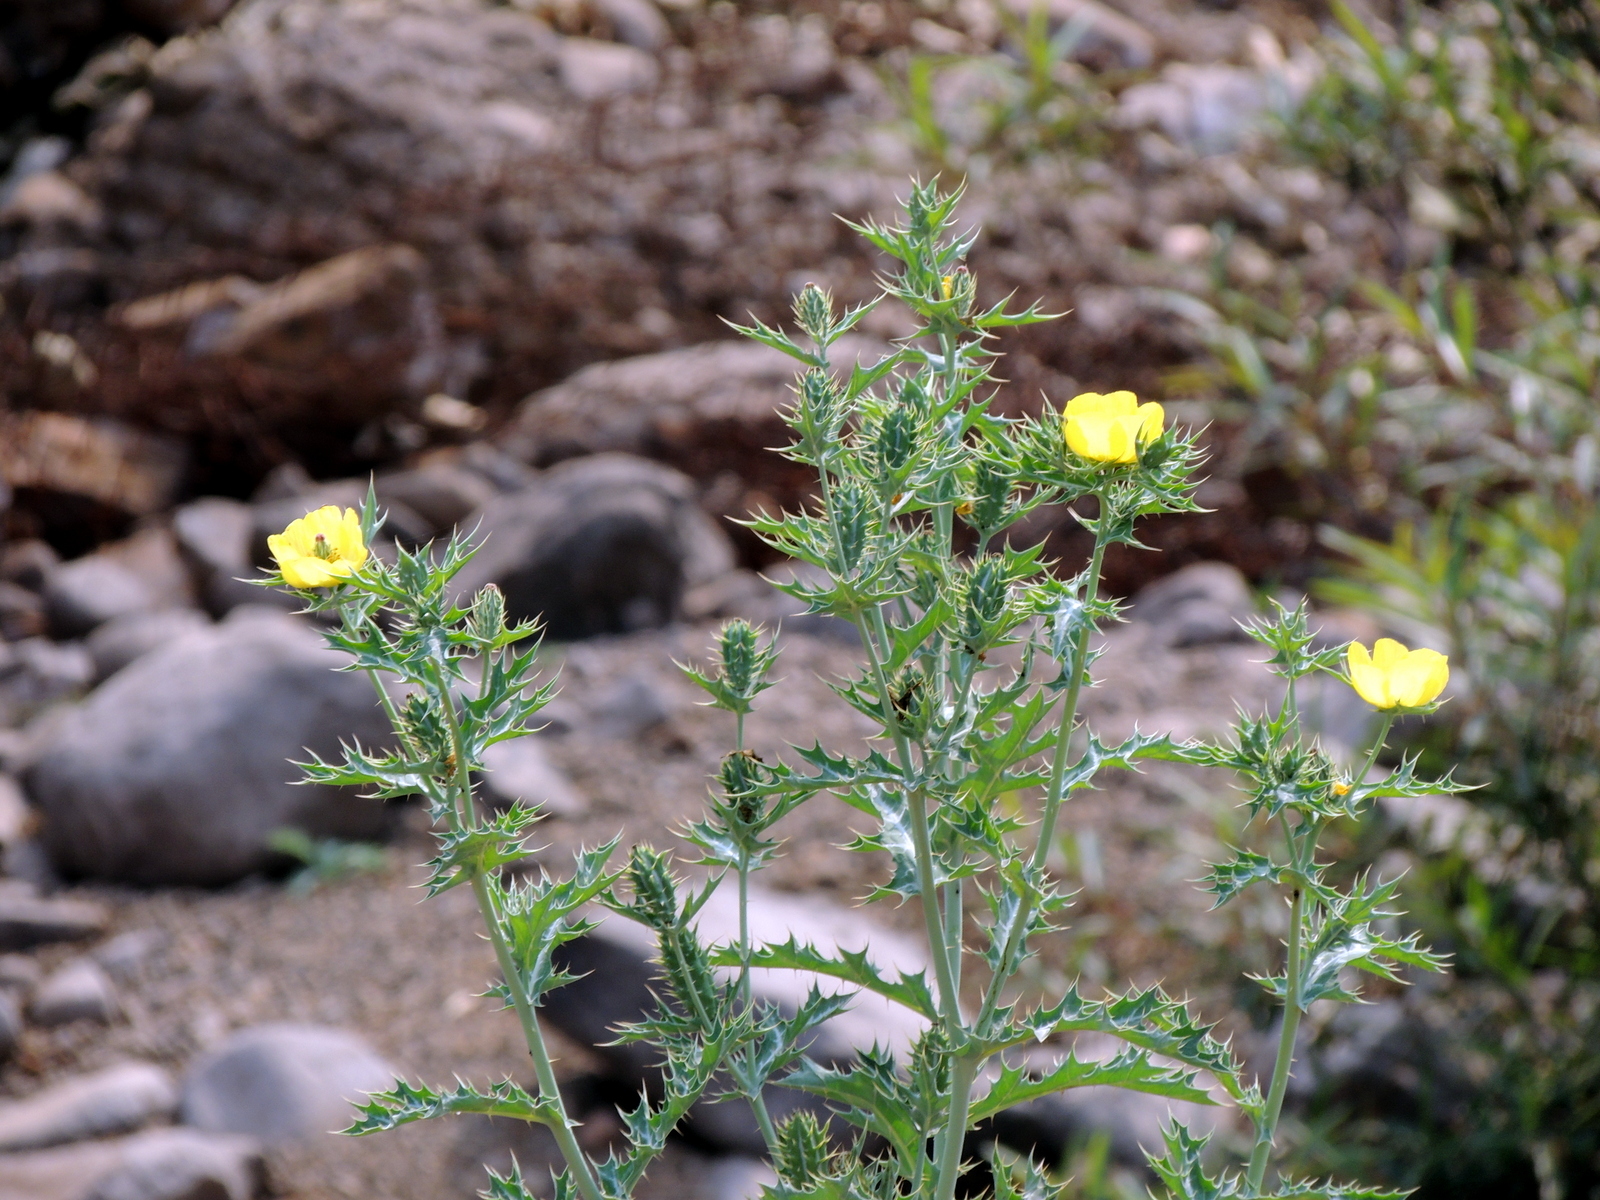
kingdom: Plantae
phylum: Tracheophyta
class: Magnoliopsida
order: Ranunculales
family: Papaveraceae
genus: Argemone
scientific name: Argemone mexicana
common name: Mexican poppy
